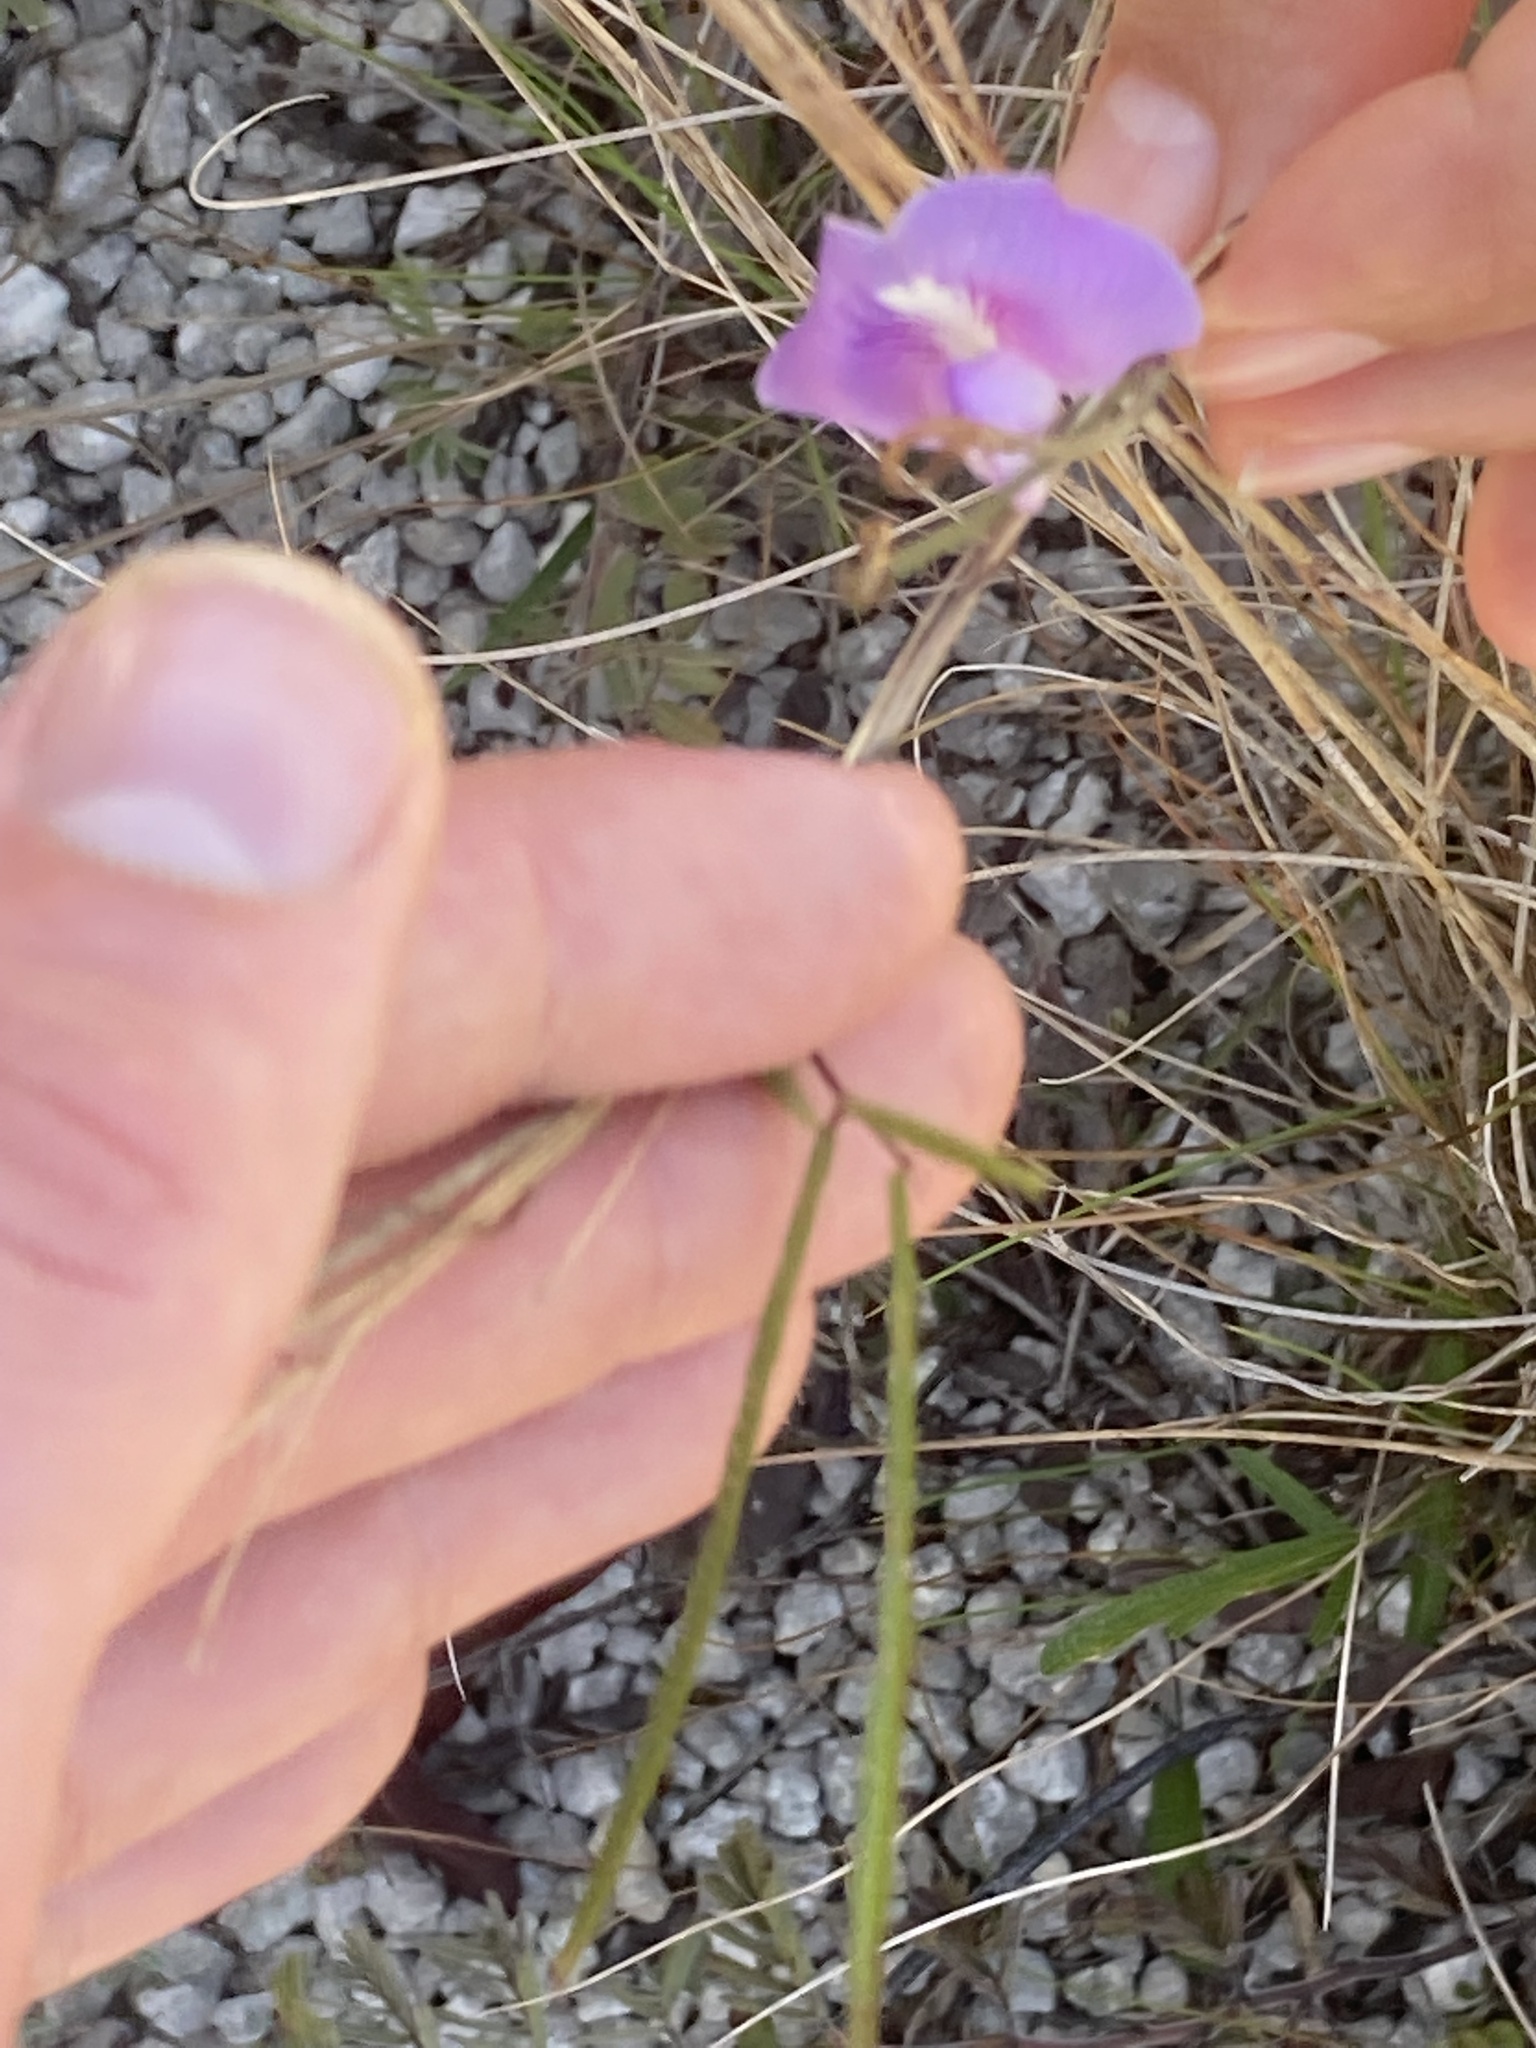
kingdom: Plantae
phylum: Tracheophyta
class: Magnoliopsida
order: Fabales
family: Fabaceae
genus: Centrosema
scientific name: Centrosema virginianum
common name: Butterfly-pea
